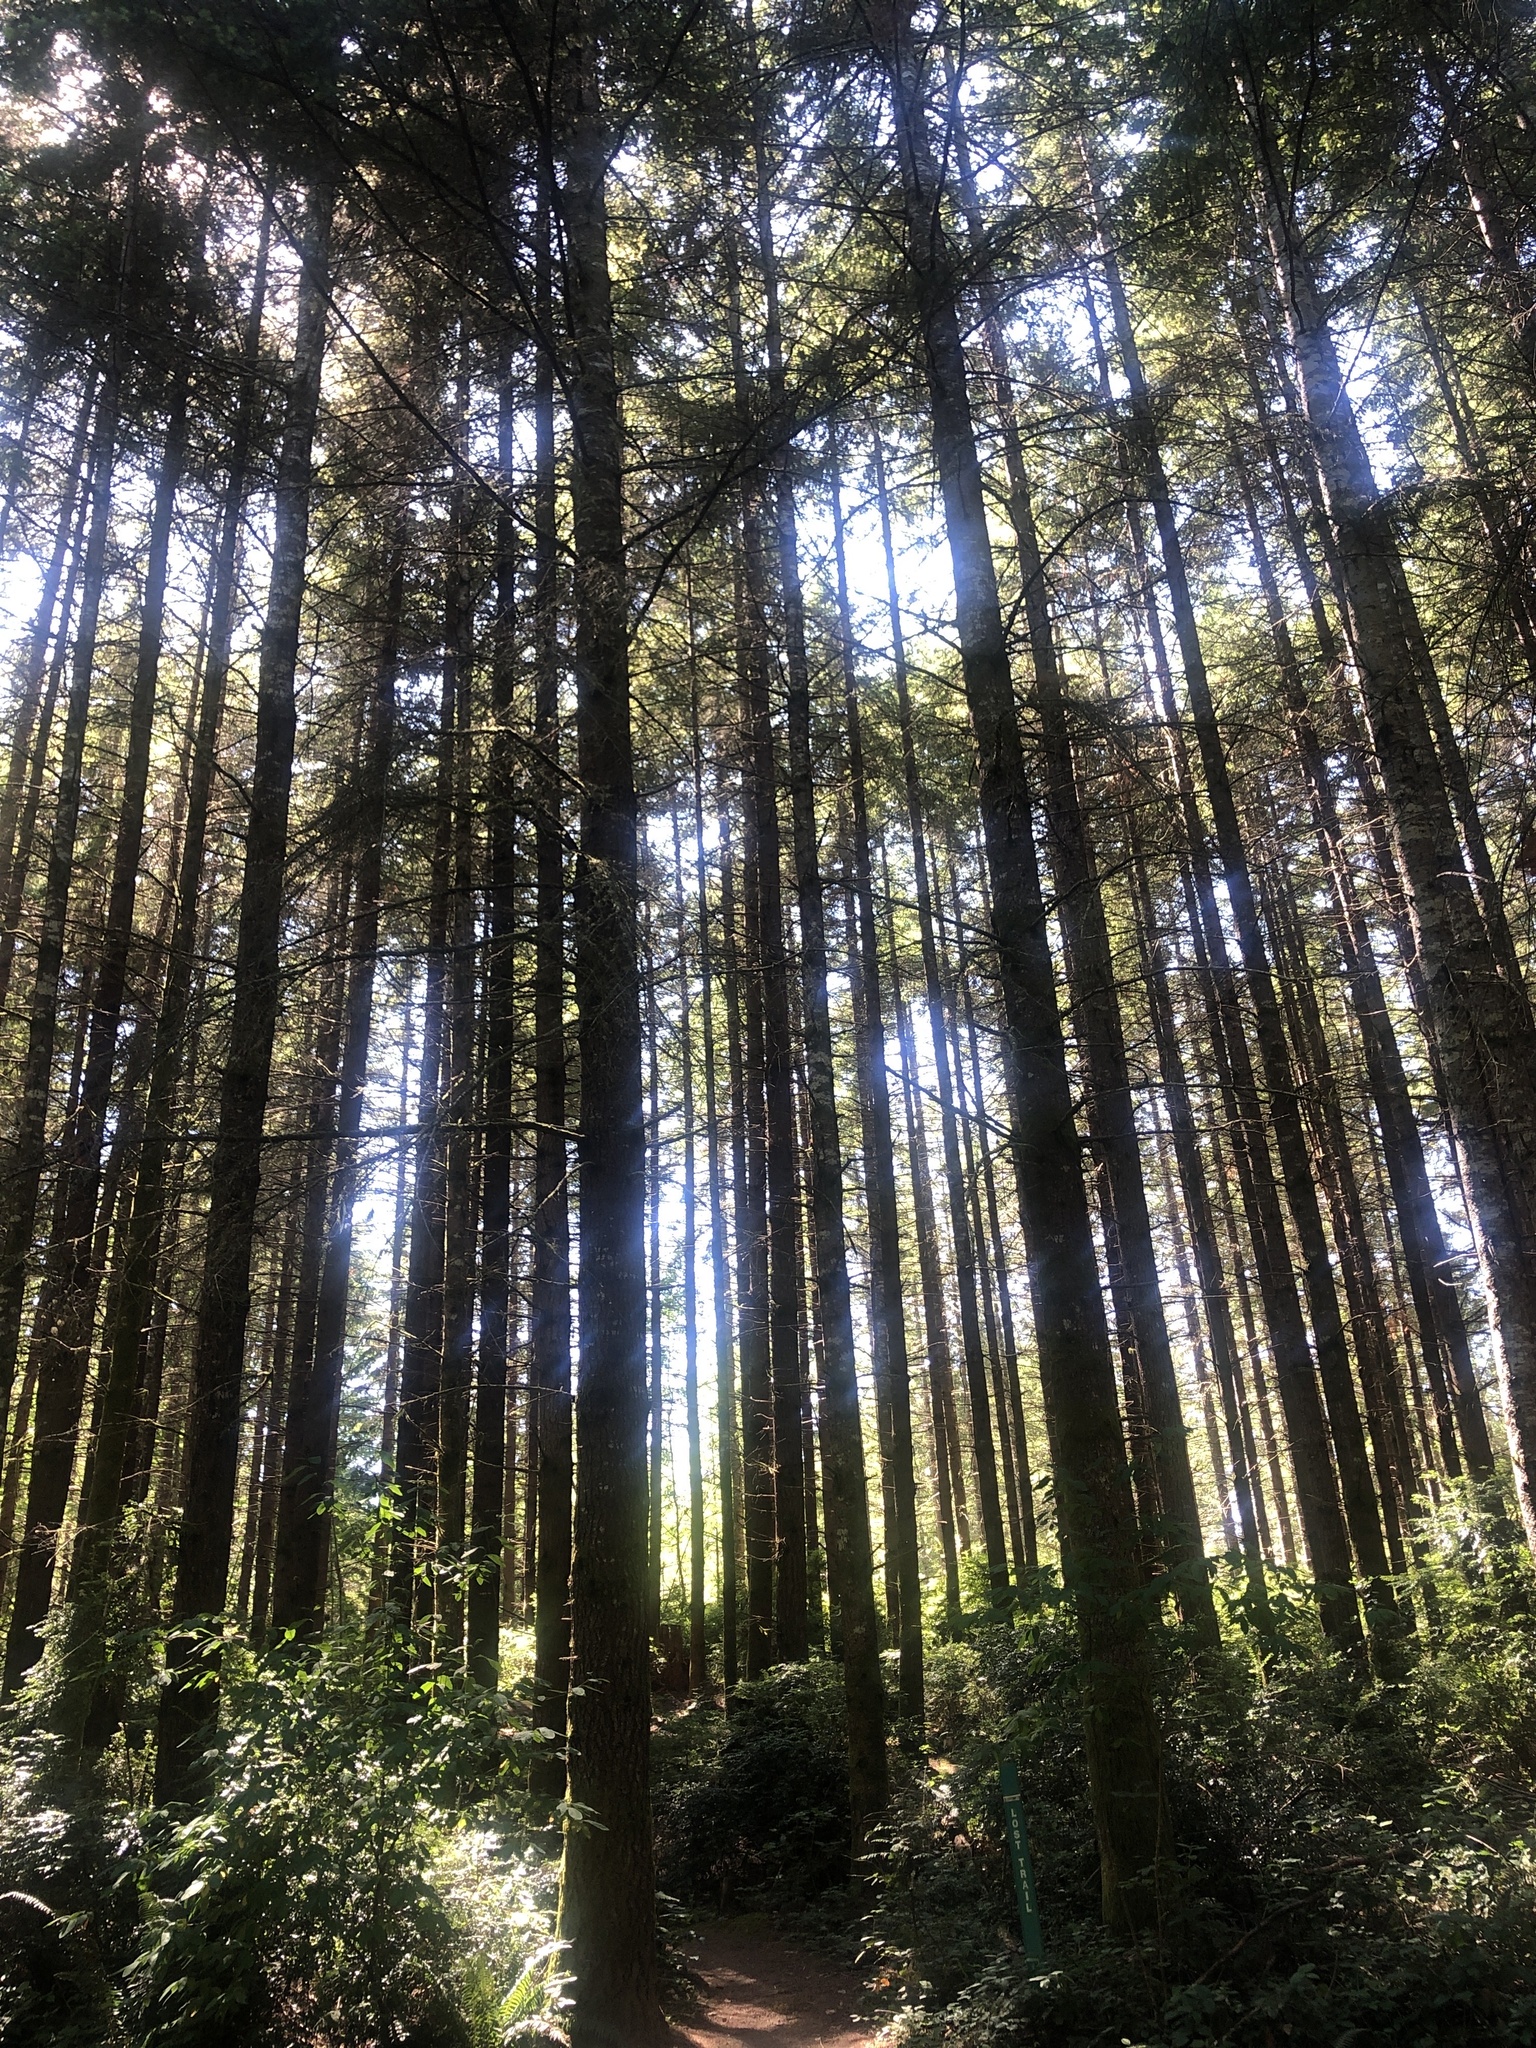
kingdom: Plantae
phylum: Tracheophyta
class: Pinopsida
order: Pinales
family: Pinaceae
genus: Pseudotsuga
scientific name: Pseudotsuga menziesii
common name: Douglas fir
